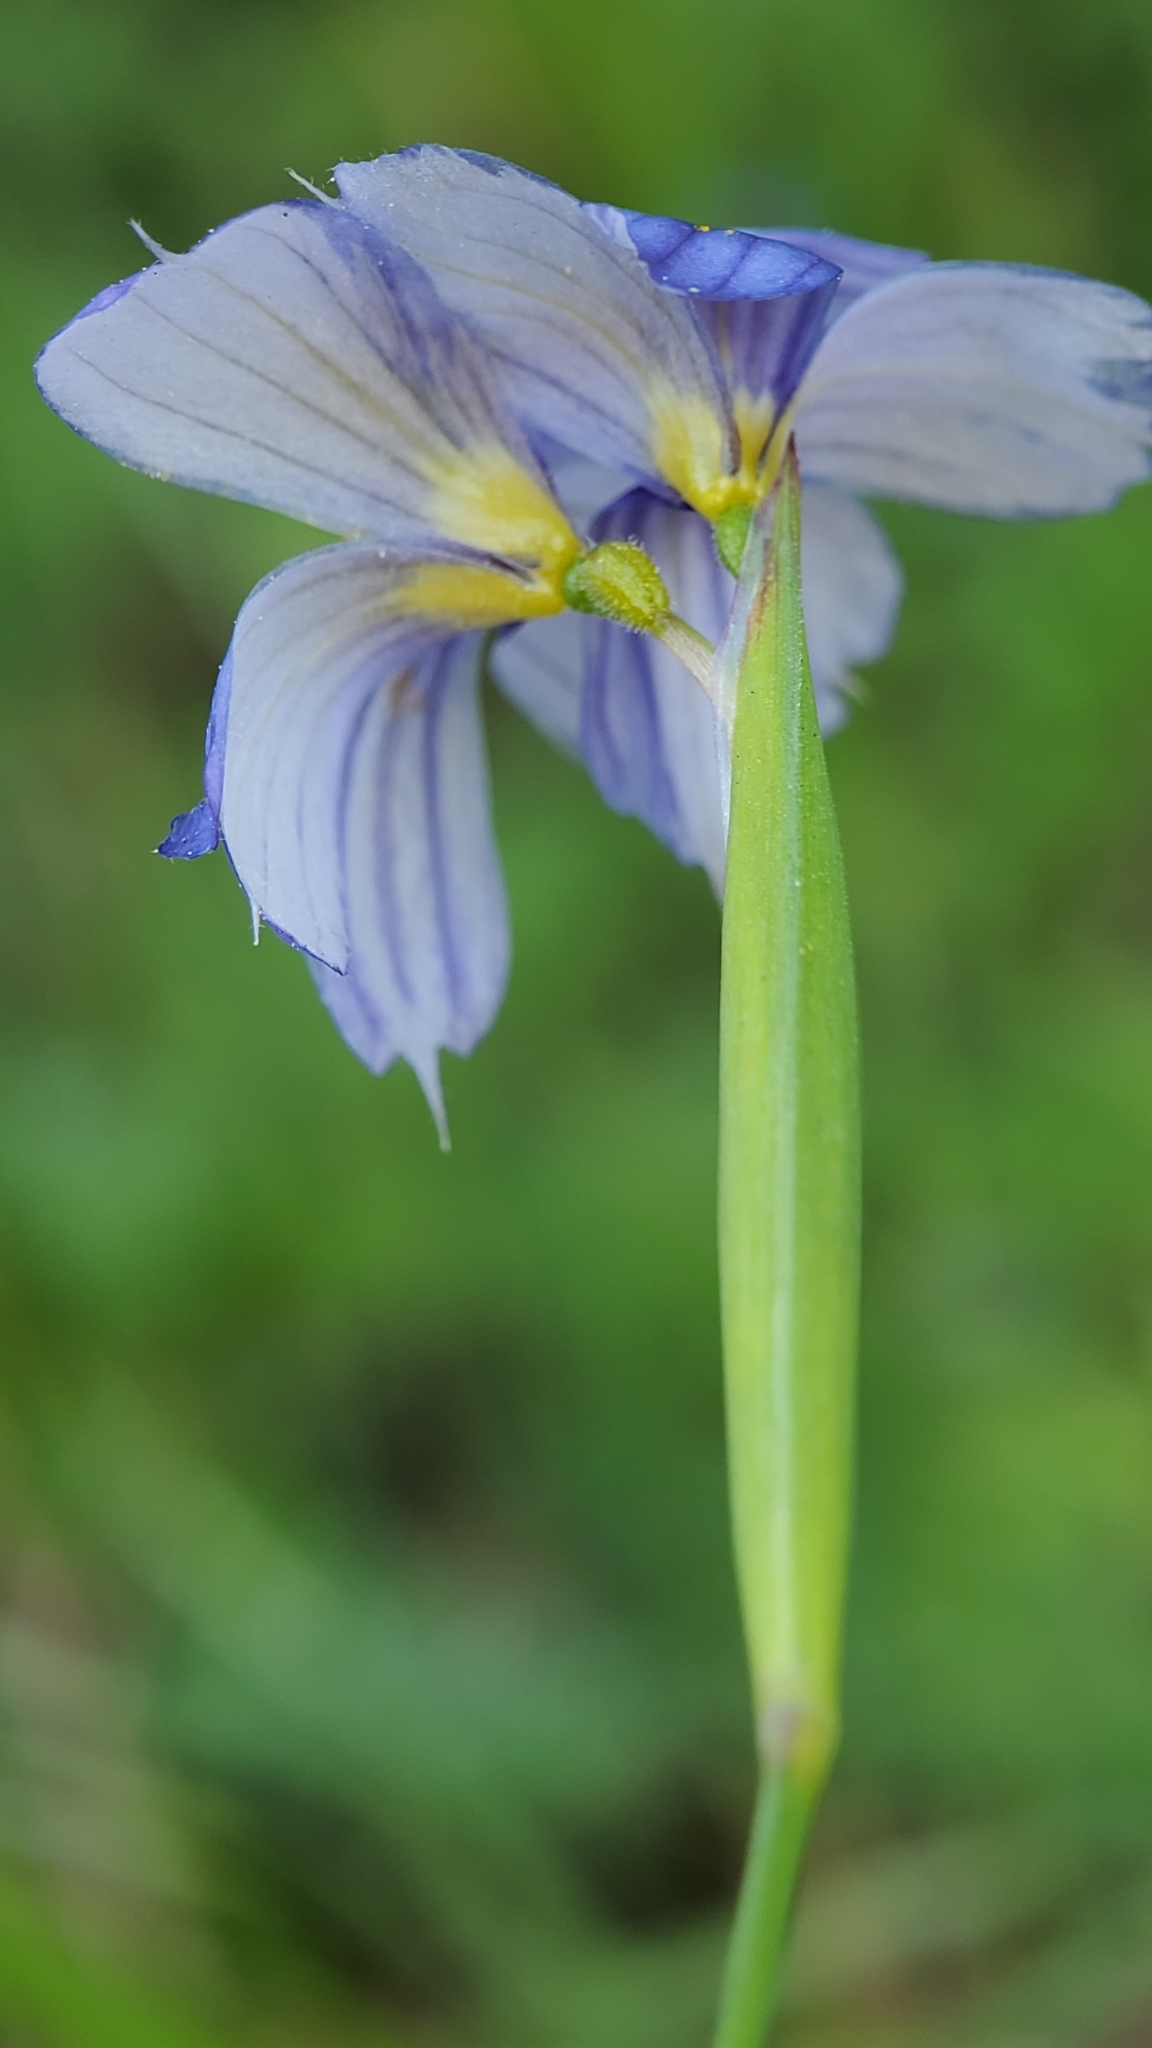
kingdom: Plantae
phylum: Tracheophyta
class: Liliopsida
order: Asparagales
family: Iridaceae
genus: Sisyrinchium
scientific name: Sisyrinchium bellum
